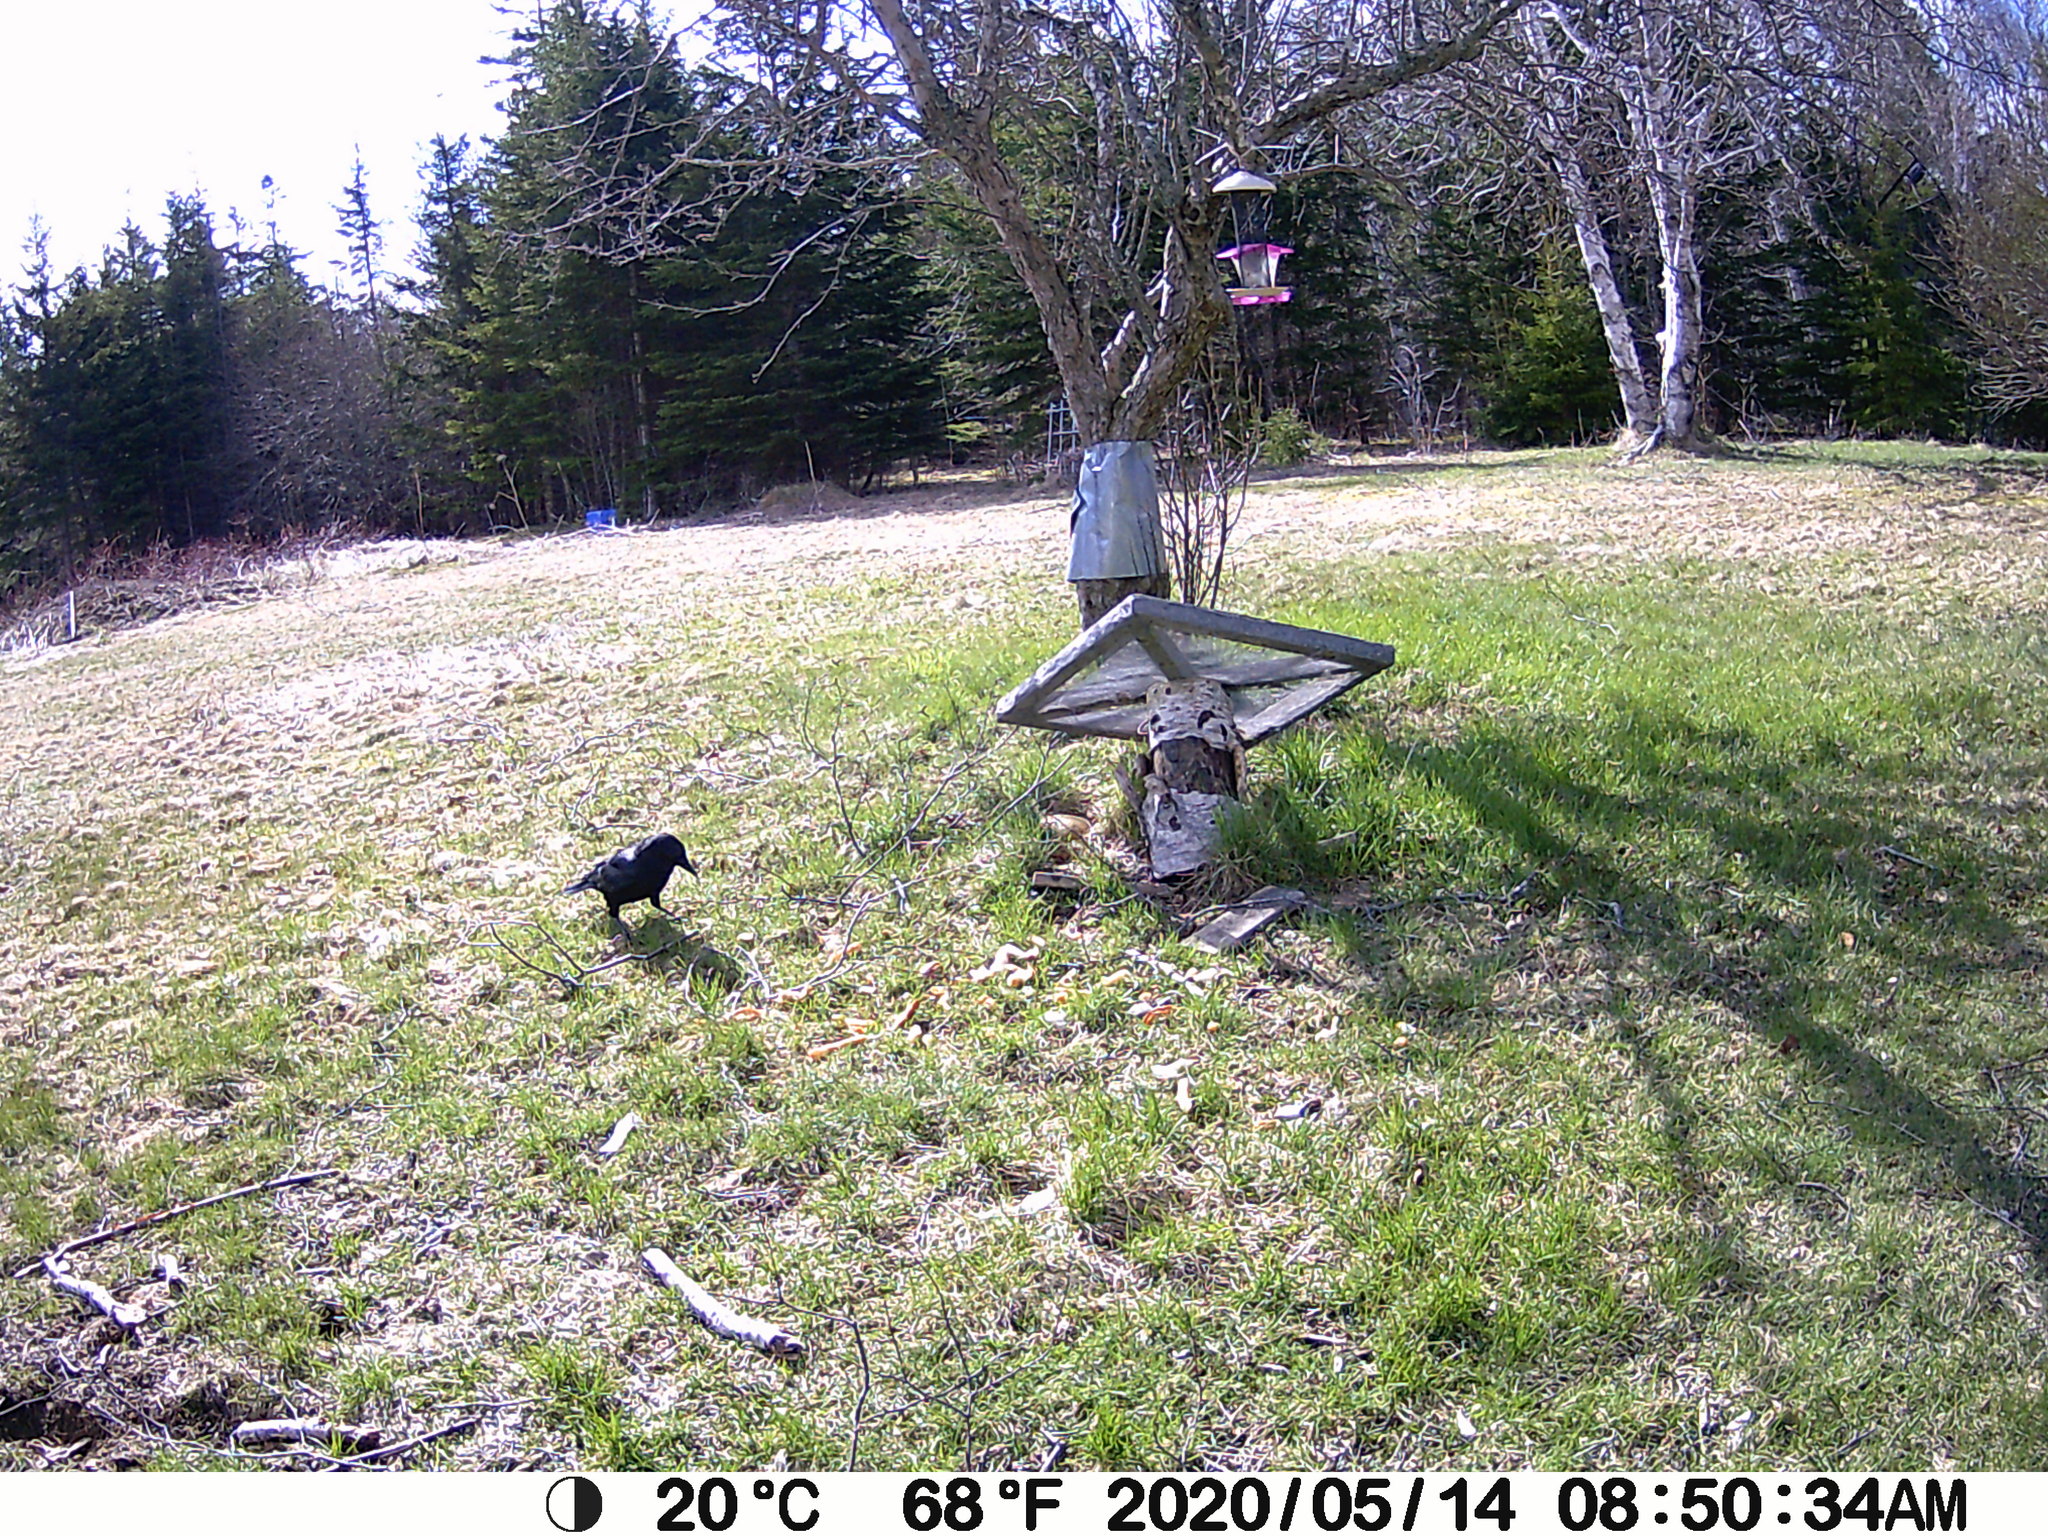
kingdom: Animalia
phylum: Chordata
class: Aves
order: Passeriformes
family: Corvidae
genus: Corvus
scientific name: Corvus brachyrhynchos
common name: American crow
